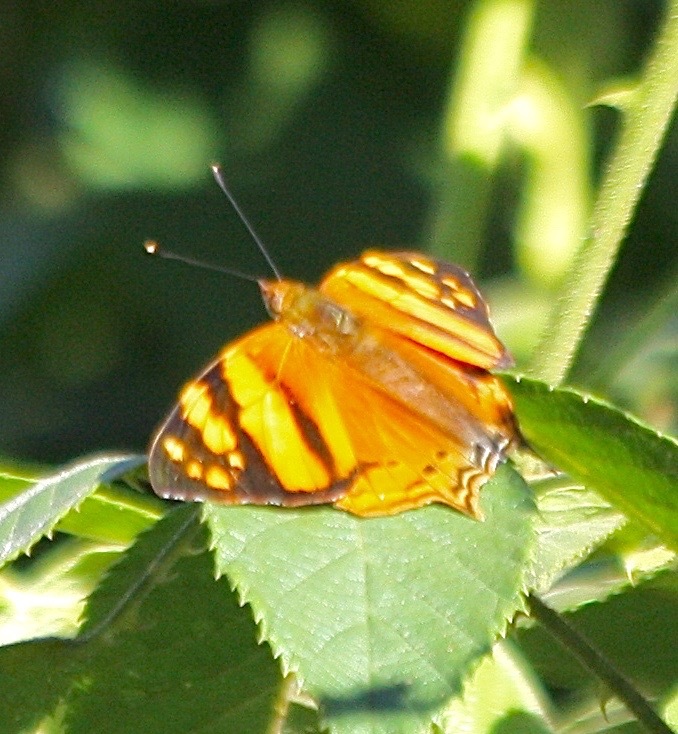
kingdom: Animalia
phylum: Arthropoda
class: Insecta
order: Lepidoptera
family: Nymphalidae
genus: Hypanartia
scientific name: Hypanartia lethe
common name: Orange mapwing
